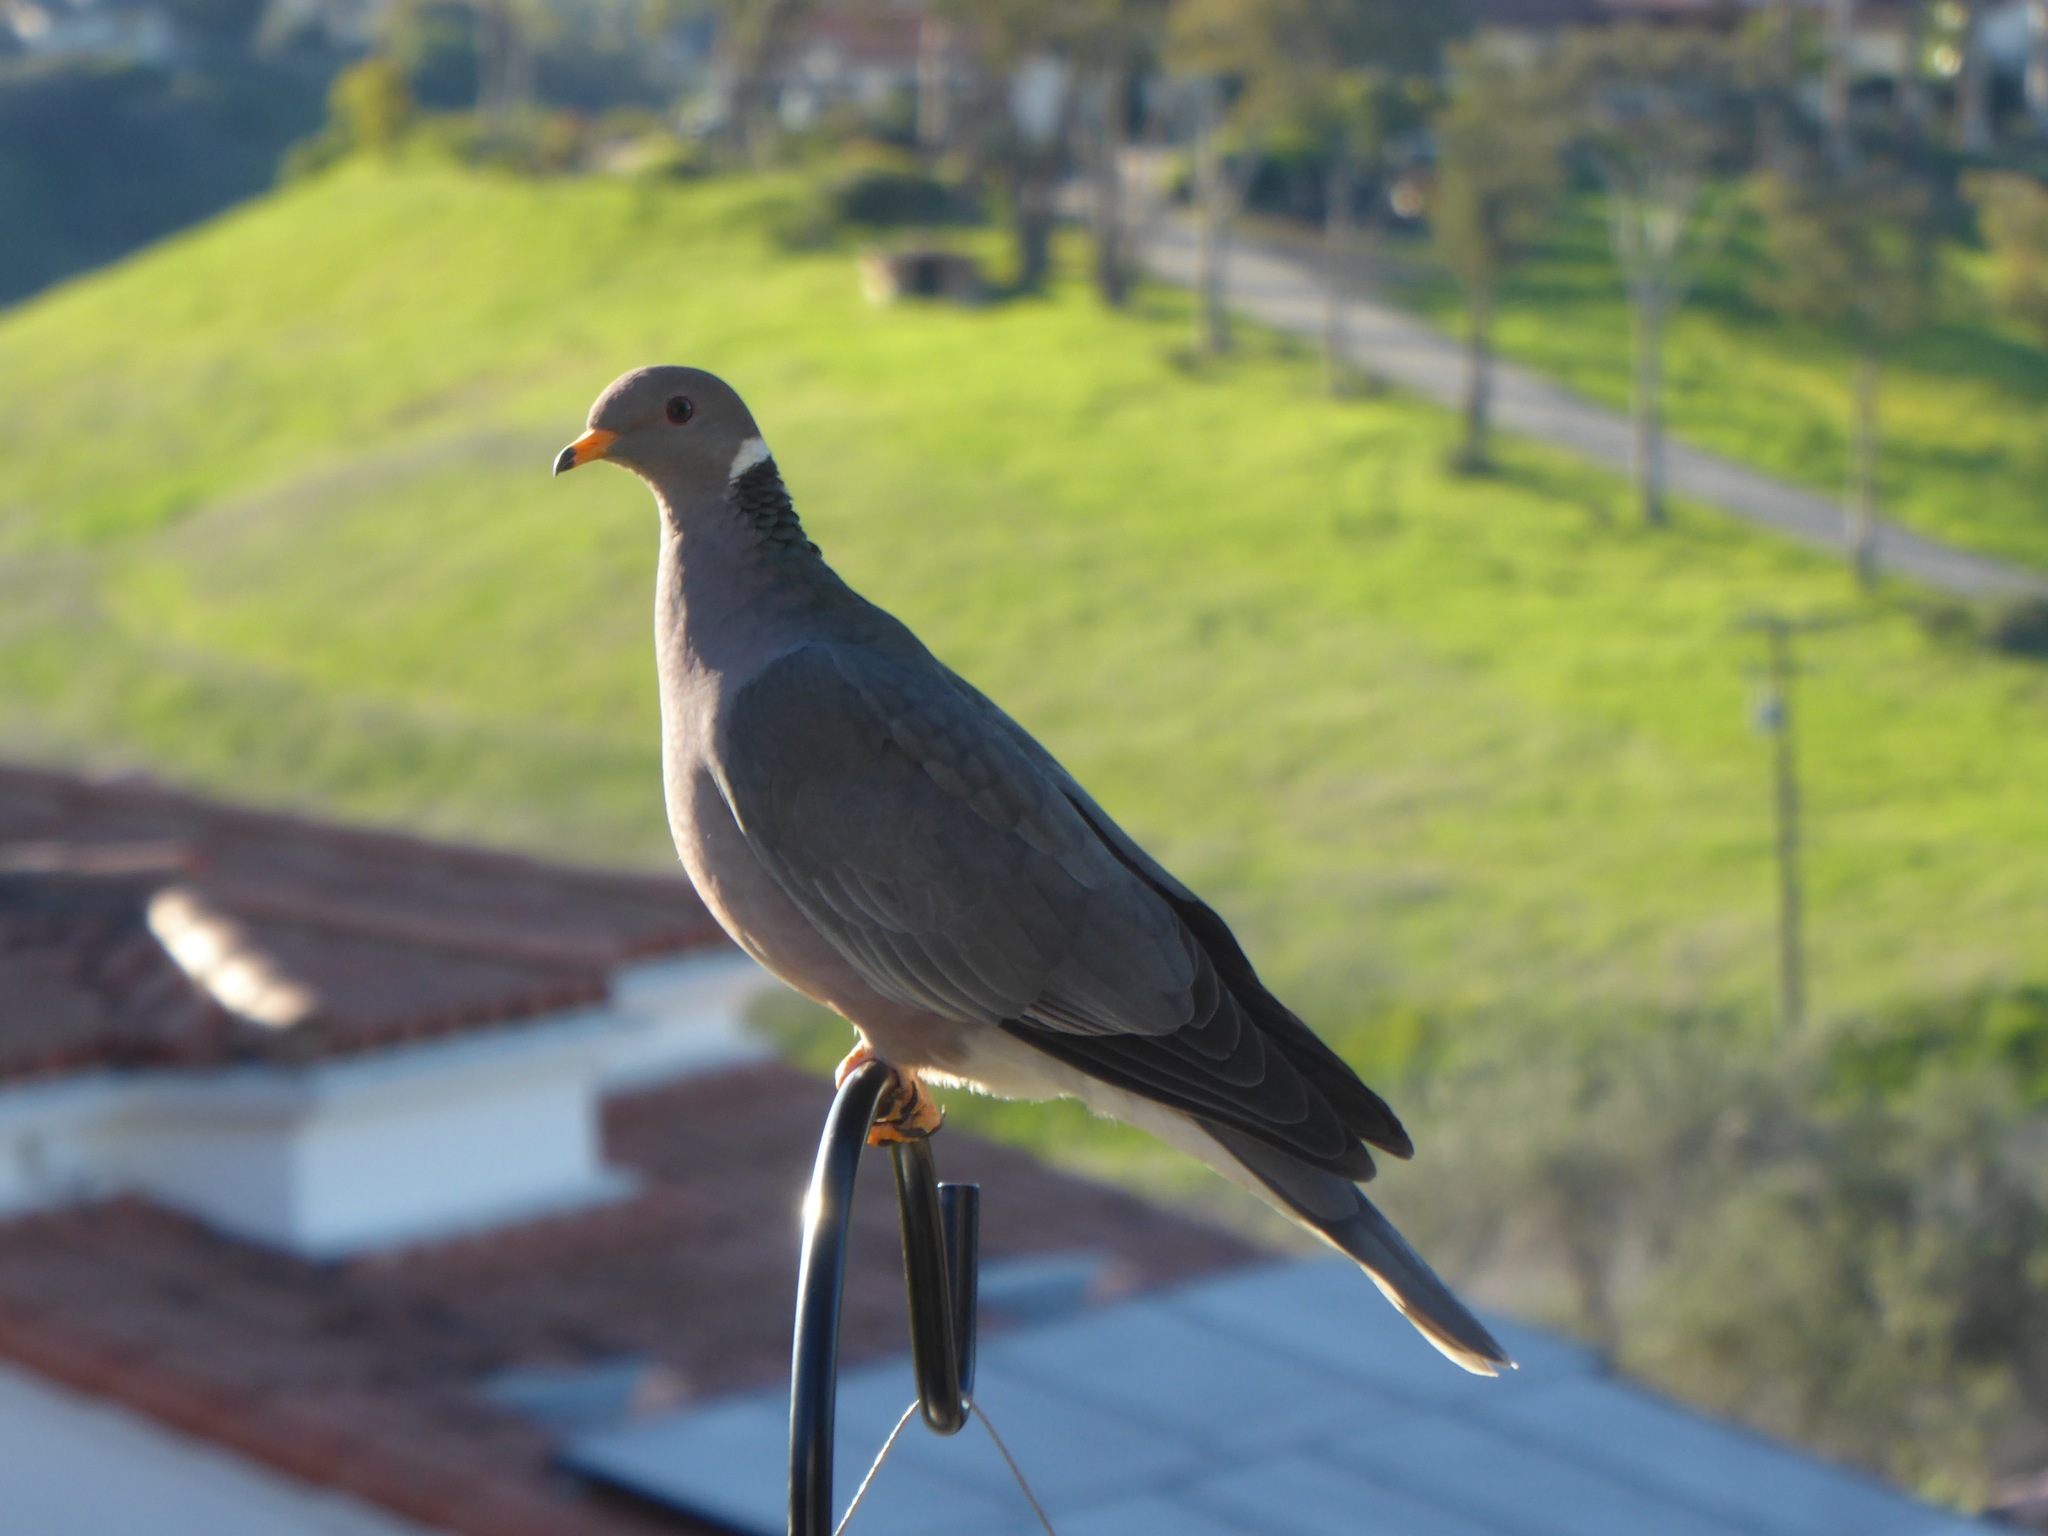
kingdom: Animalia
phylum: Chordata
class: Aves
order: Columbiformes
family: Columbidae
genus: Patagioenas
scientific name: Patagioenas fasciata
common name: Band-tailed pigeon
